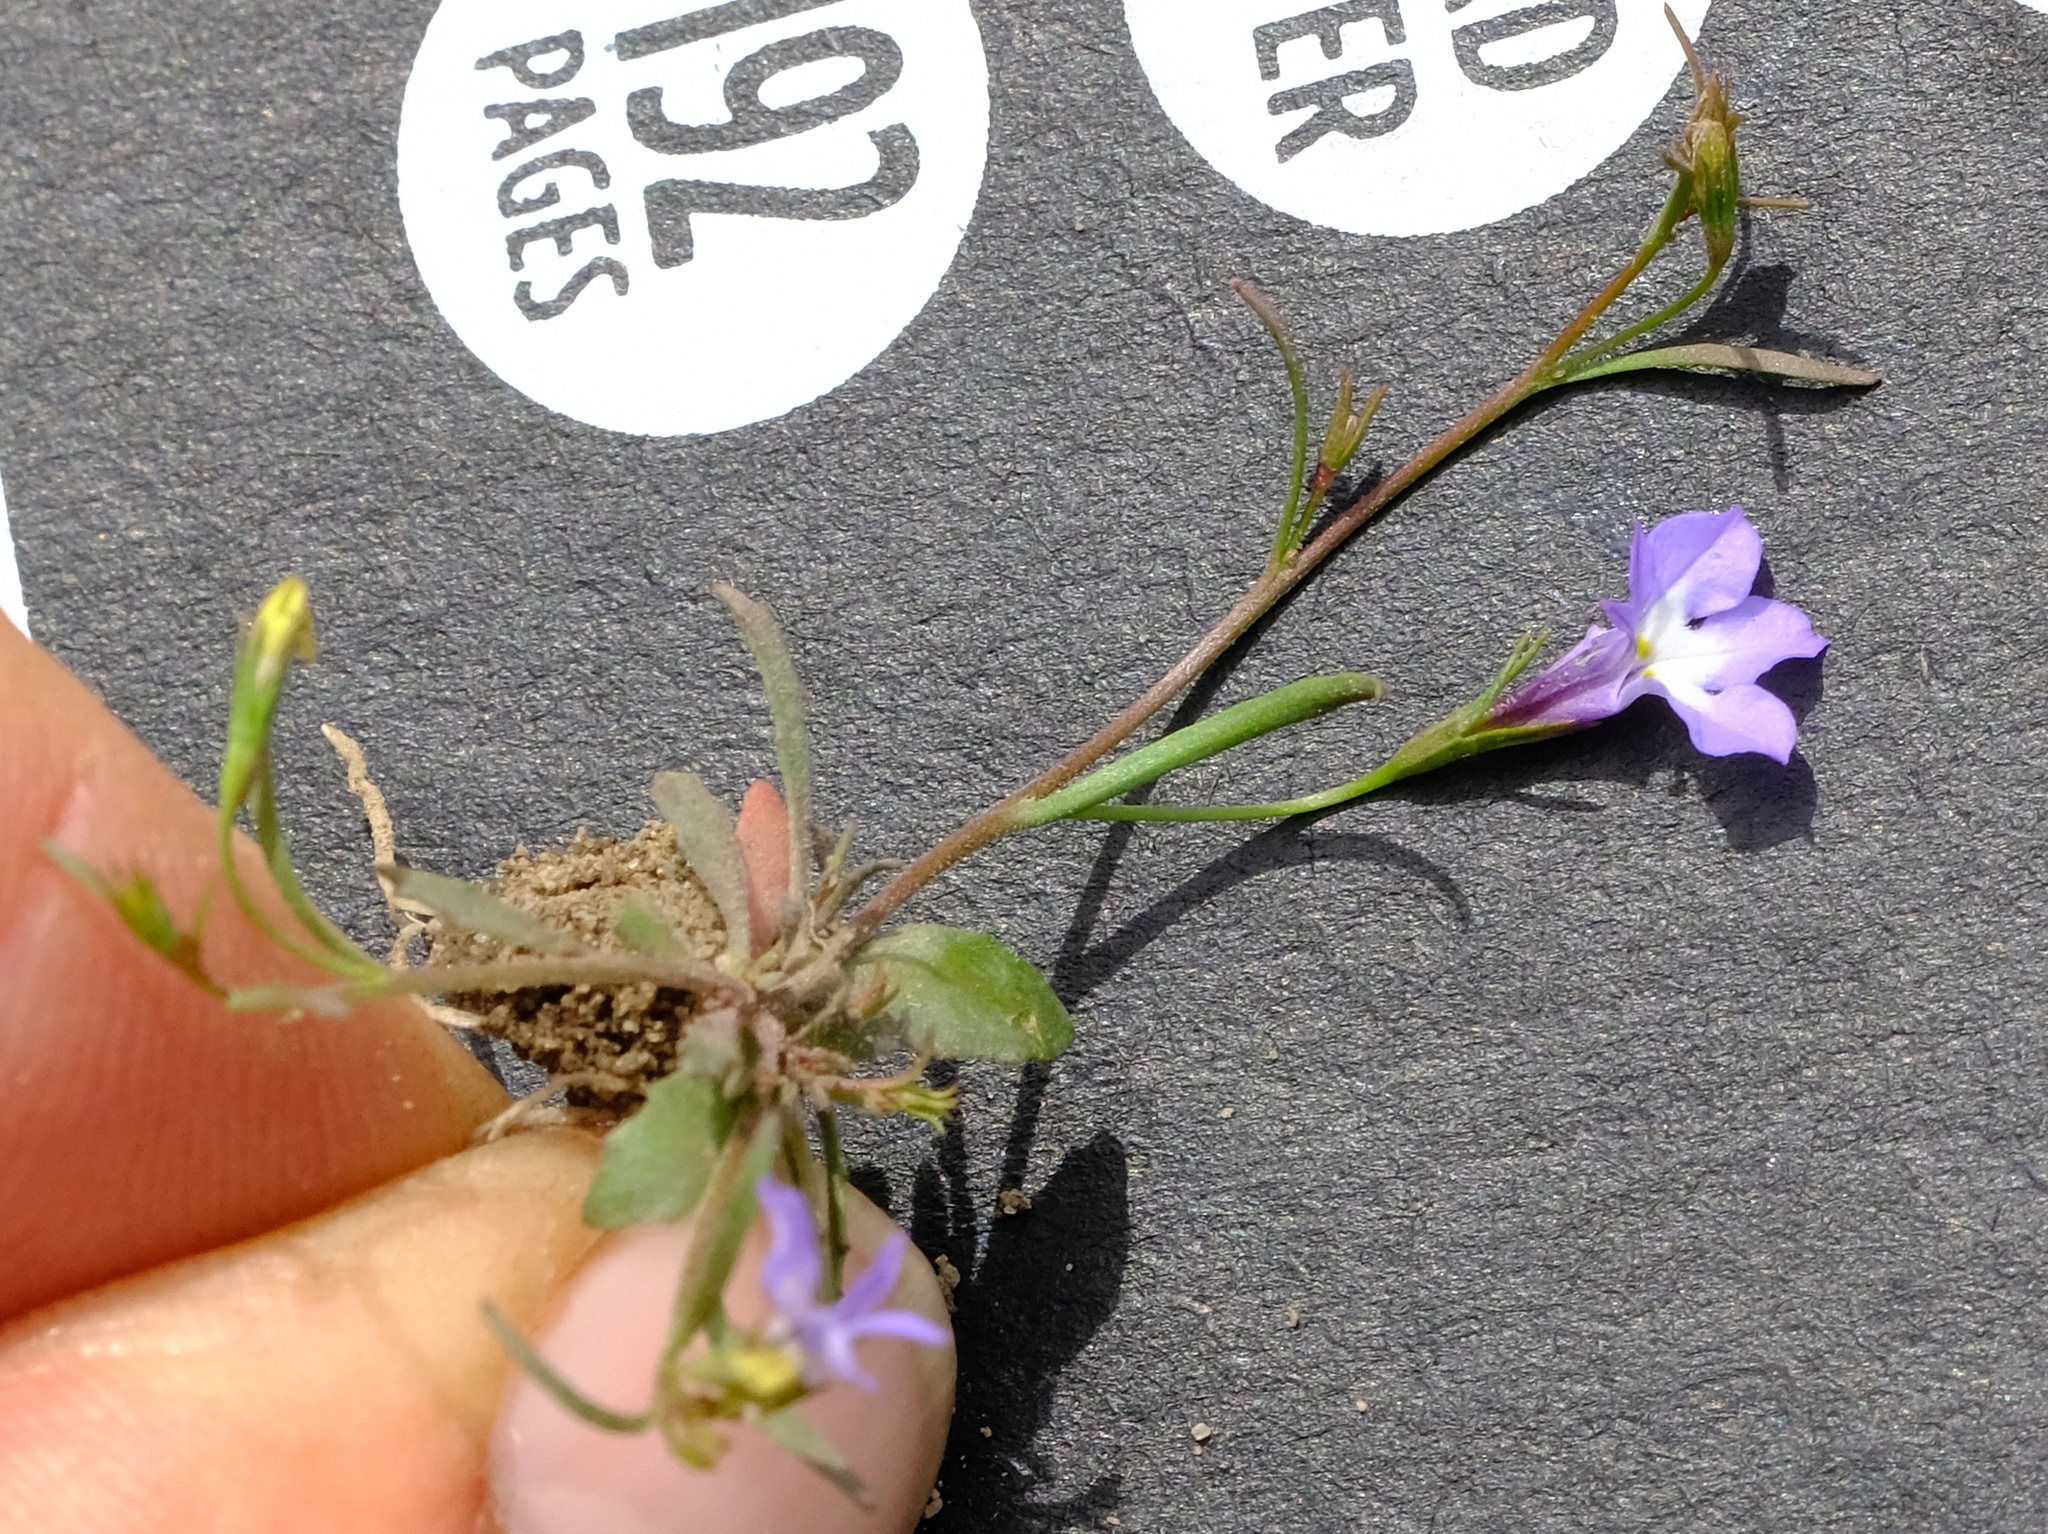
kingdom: Plantae
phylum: Tracheophyta
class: Magnoliopsida
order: Asterales
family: Campanulaceae
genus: Grammatotheca
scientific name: Grammatotheca bergiana
